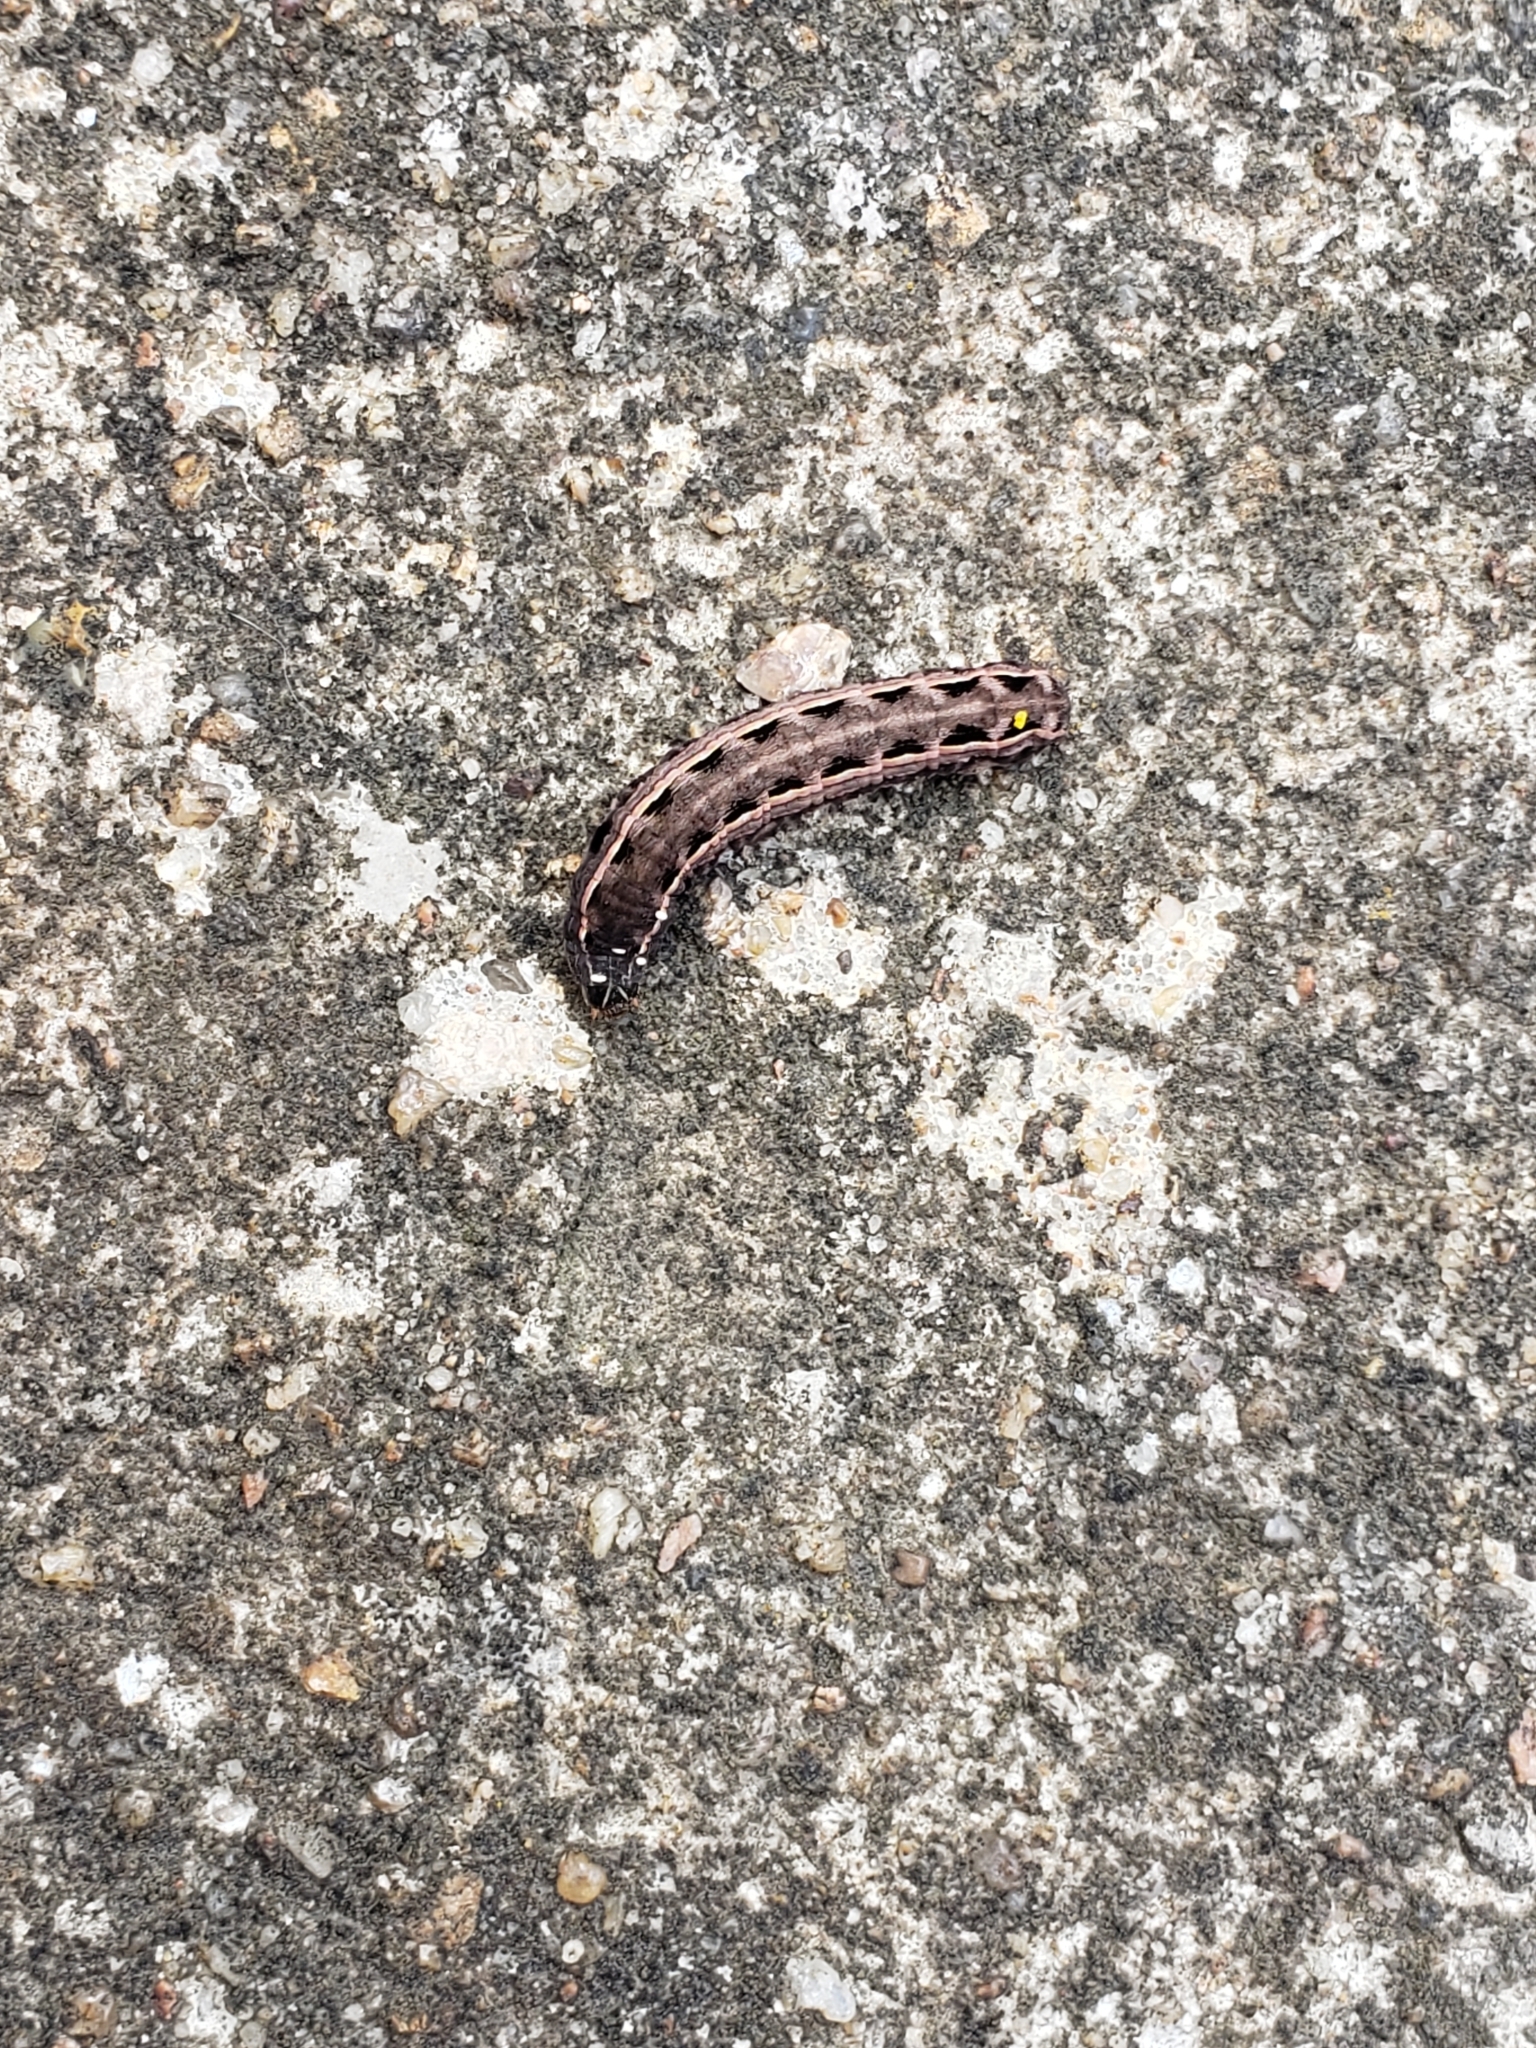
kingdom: Animalia
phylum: Arthropoda
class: Insecta
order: Lepidoptera
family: Noctuidae
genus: Spodoptera
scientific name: Spodoptera ornithogalli
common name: Yellow-striped armyworm
